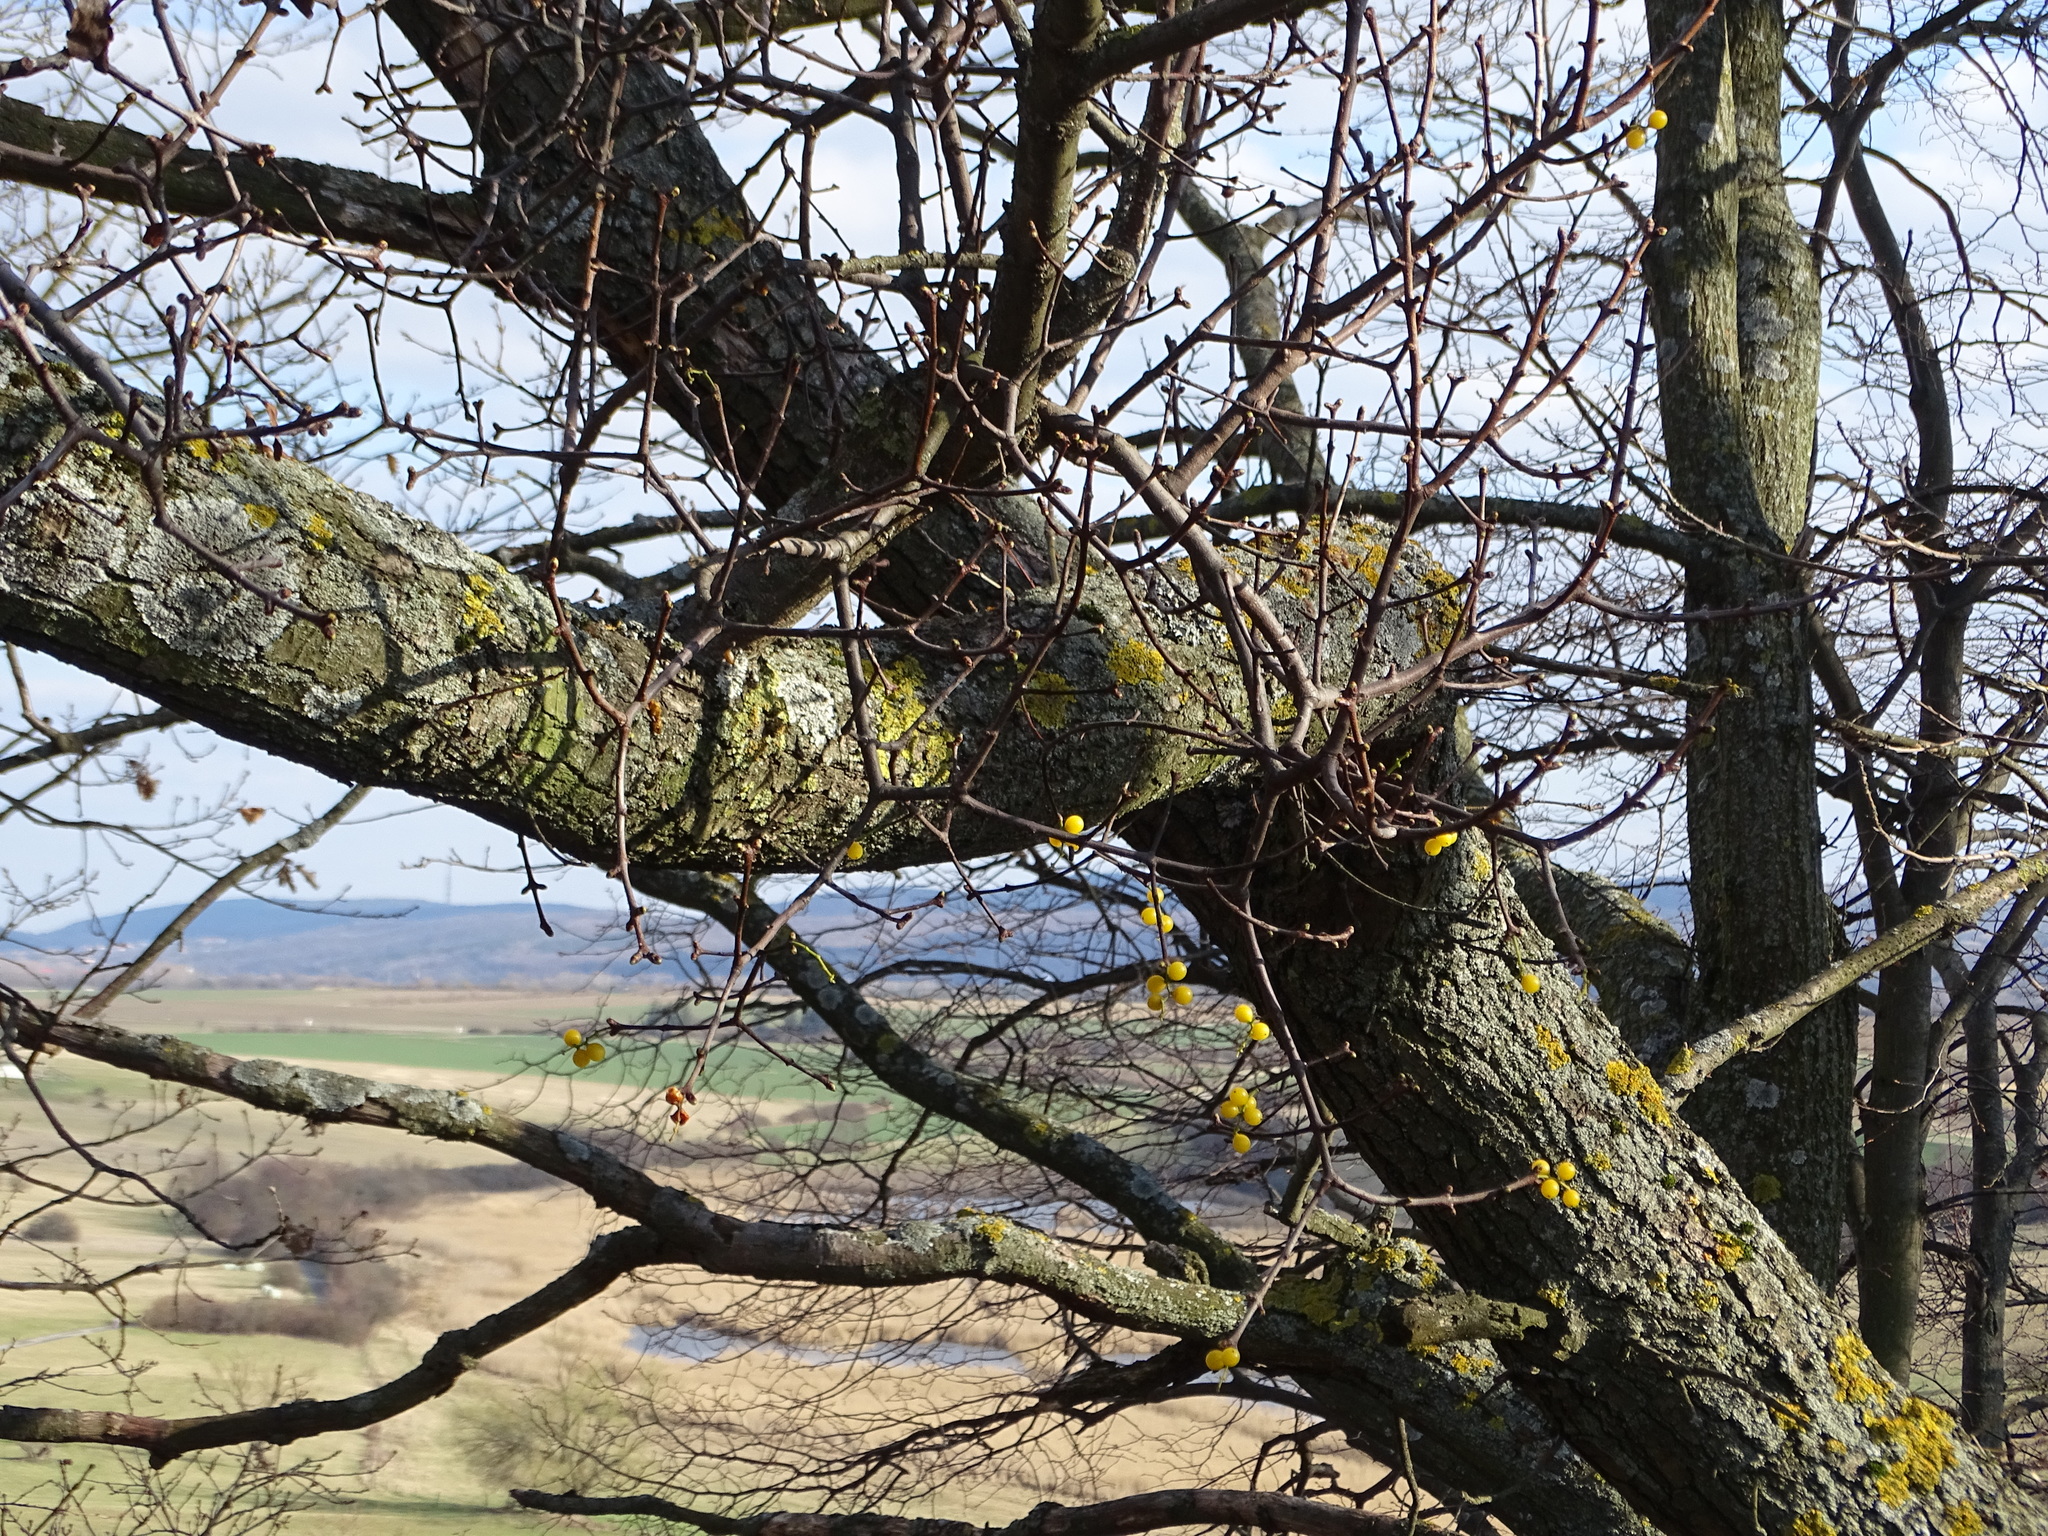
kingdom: Plantae
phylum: Tracheophyta
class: Magnoliopsida
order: Santalales
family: Loranthaceae
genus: Loranthus
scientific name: Loranthus europaeus
